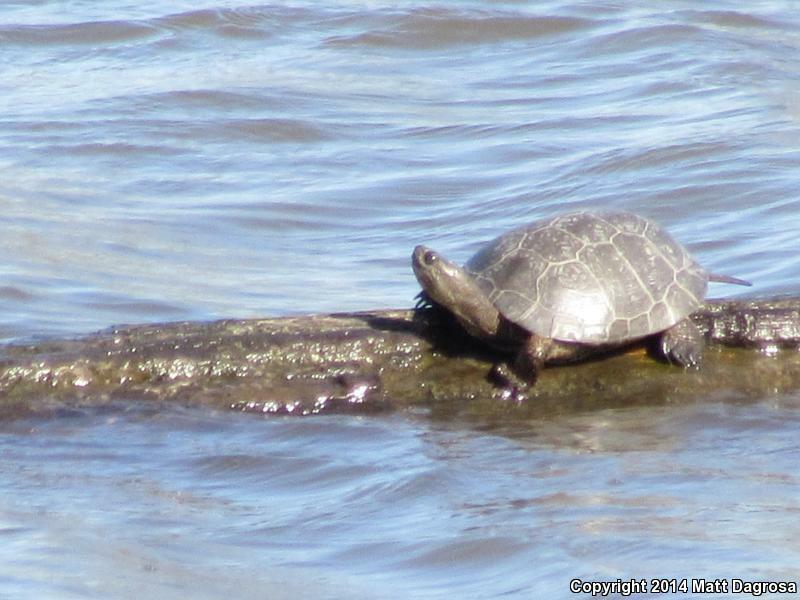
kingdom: Animalia
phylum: Chordata
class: Testudines
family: Emydidae
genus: Actinemys
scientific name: Actinemys marmorata
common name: Western pond turtle
